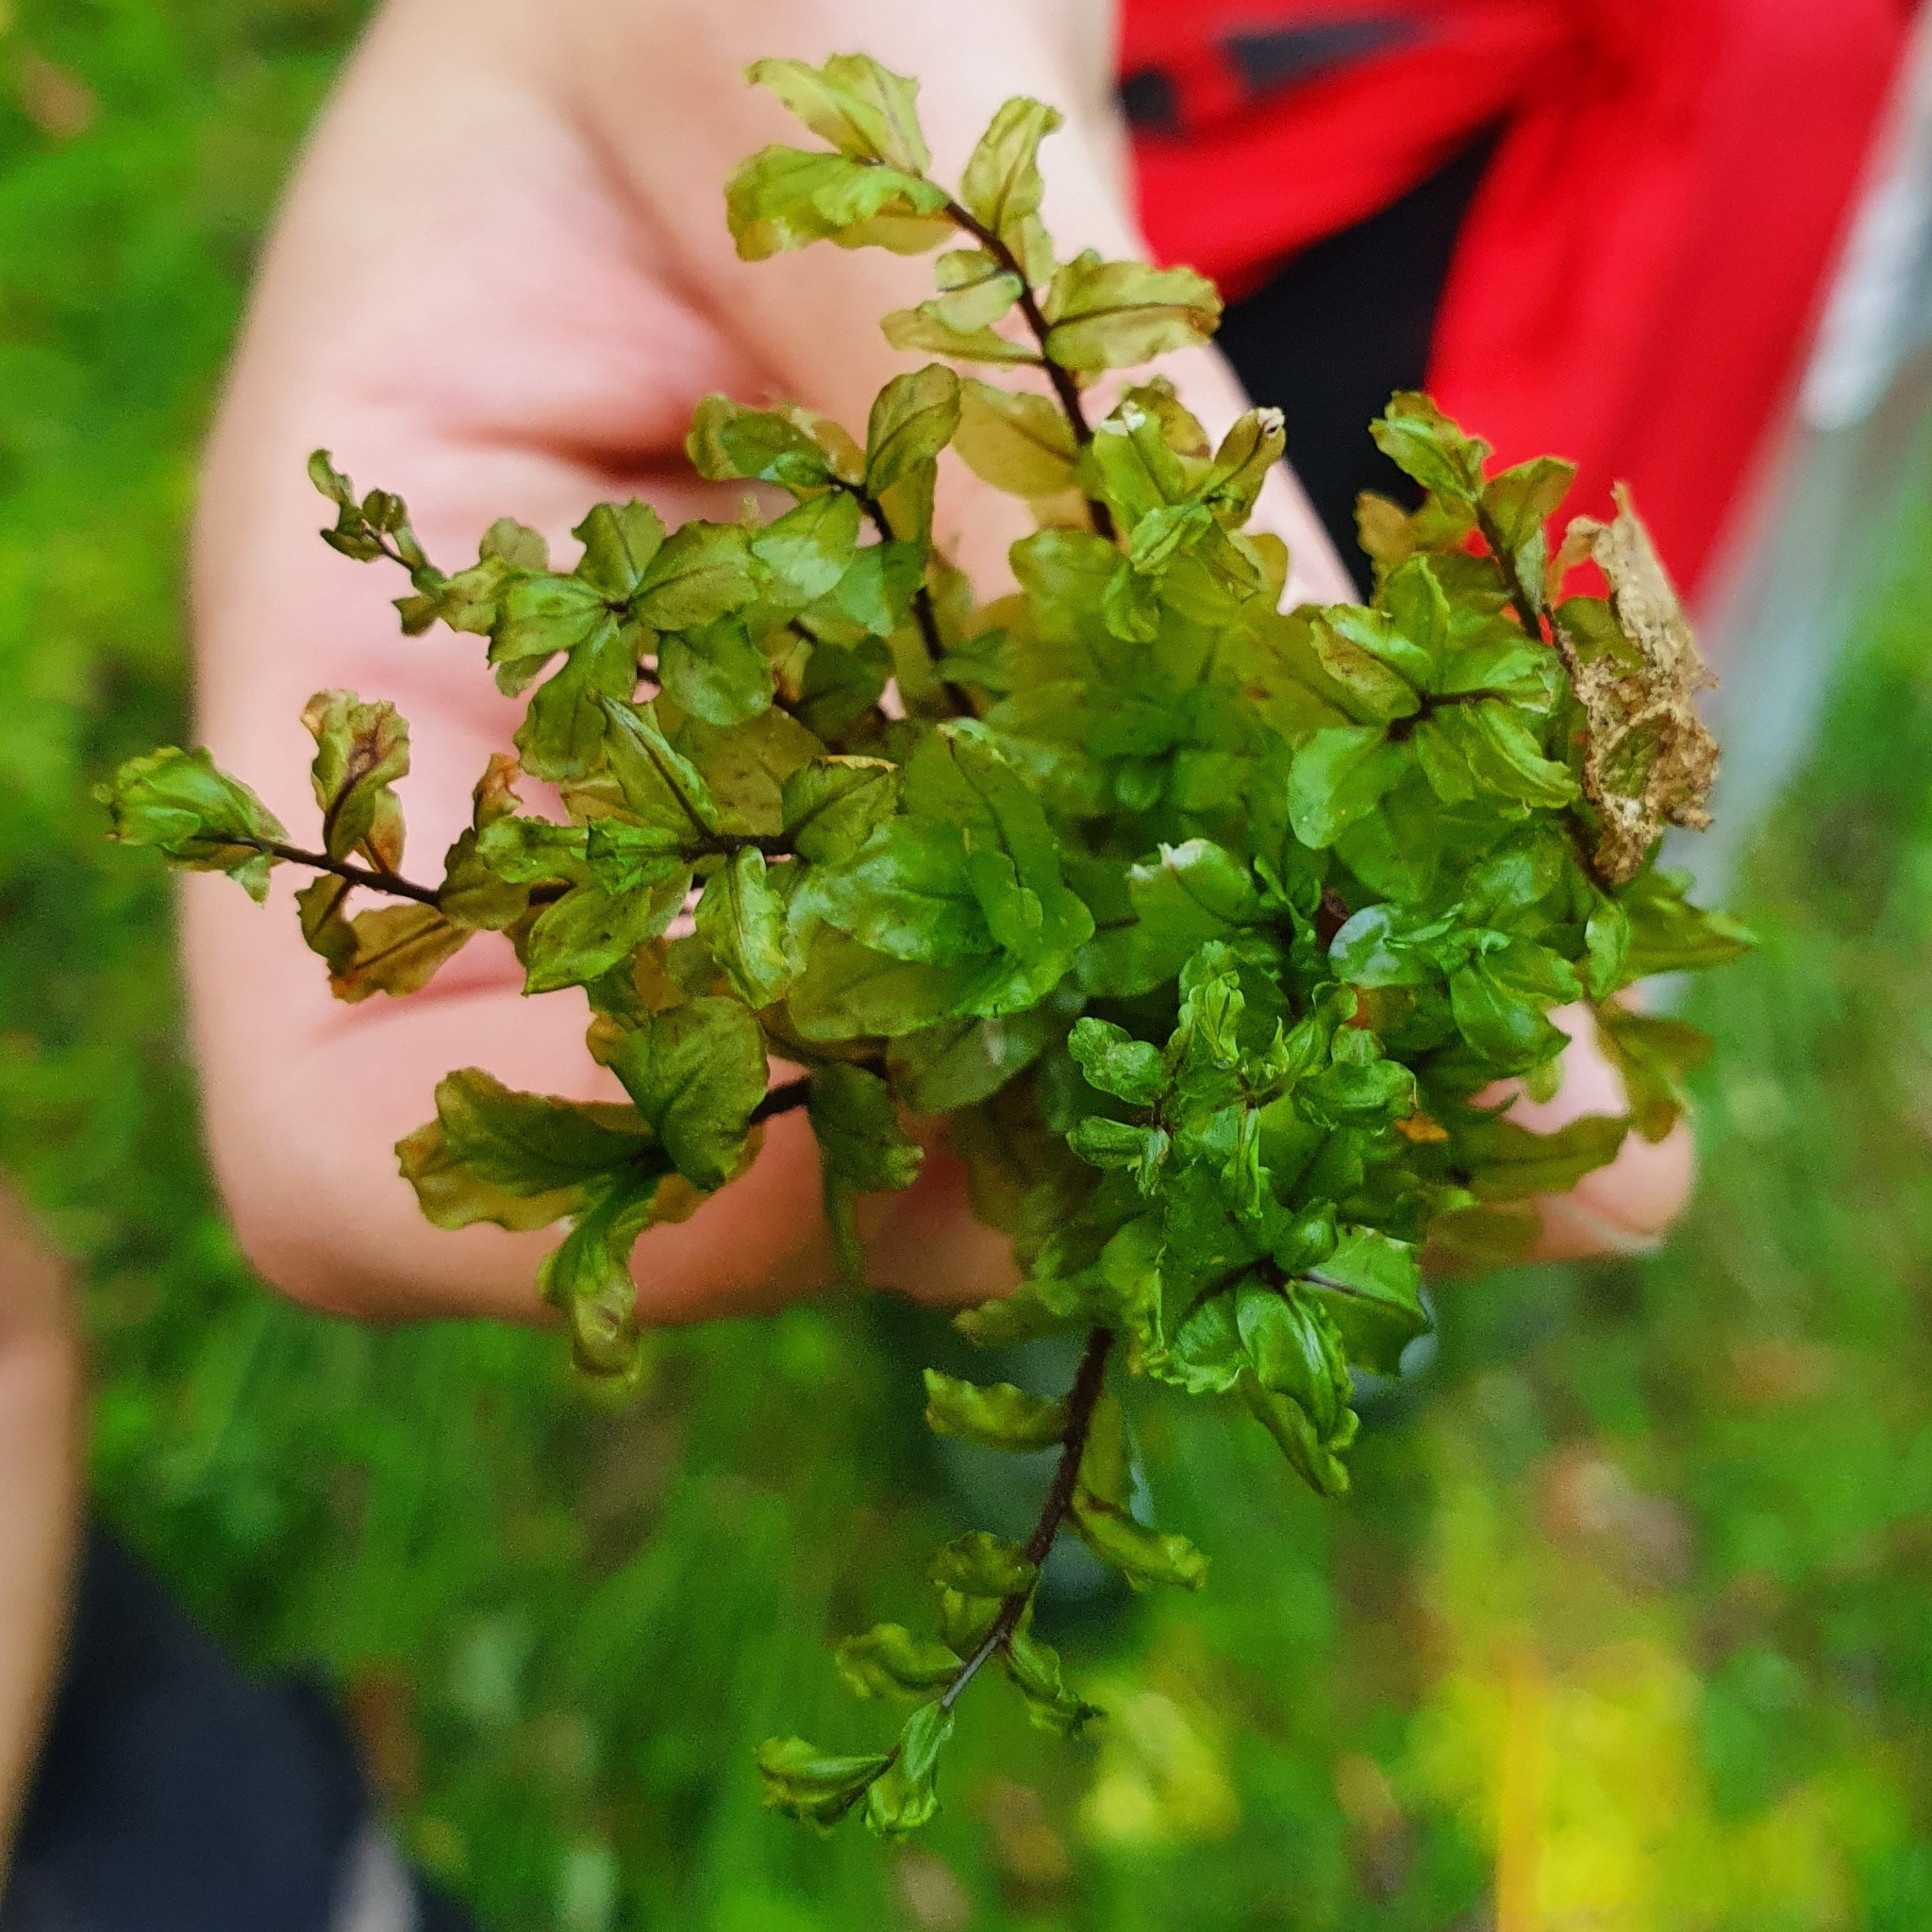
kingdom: Plantae
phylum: Bryophyta
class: Bryopsida
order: Bryales
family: Mniaceae
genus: Pseudobryum
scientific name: Pseudobryum cinclidioides
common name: River thyme moss
